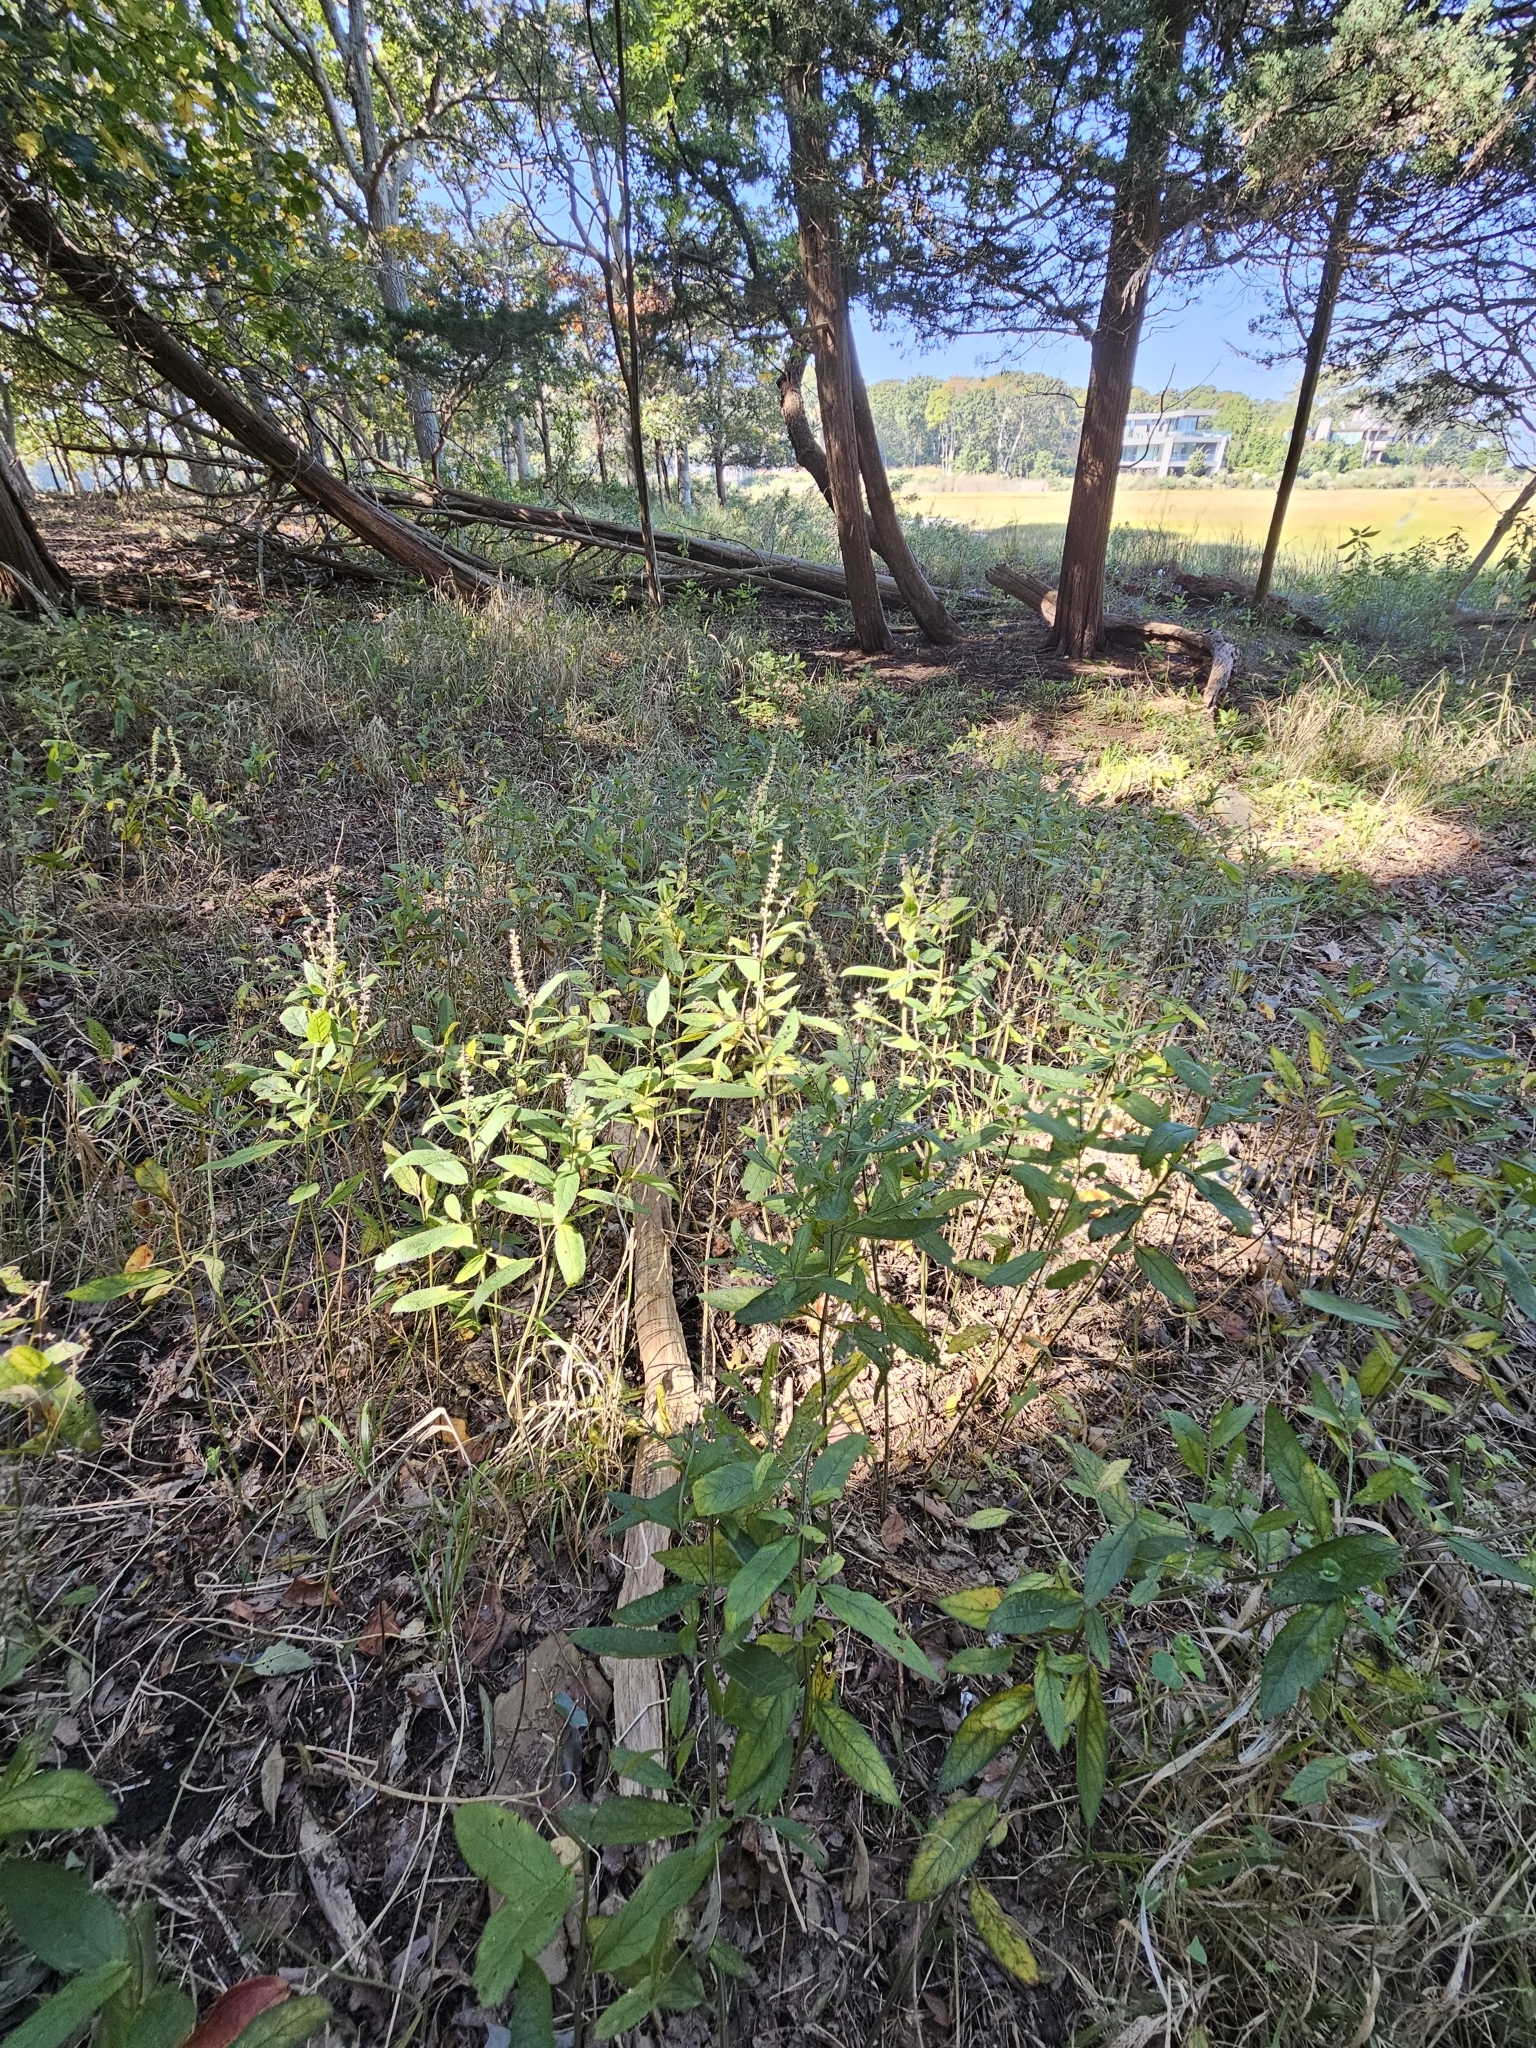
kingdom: Plantae
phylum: Tracheophyta
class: Magnoliopsida
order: Lamiales
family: Lamiaceae
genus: Teucrium
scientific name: Teucrium canadense
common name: American germander
